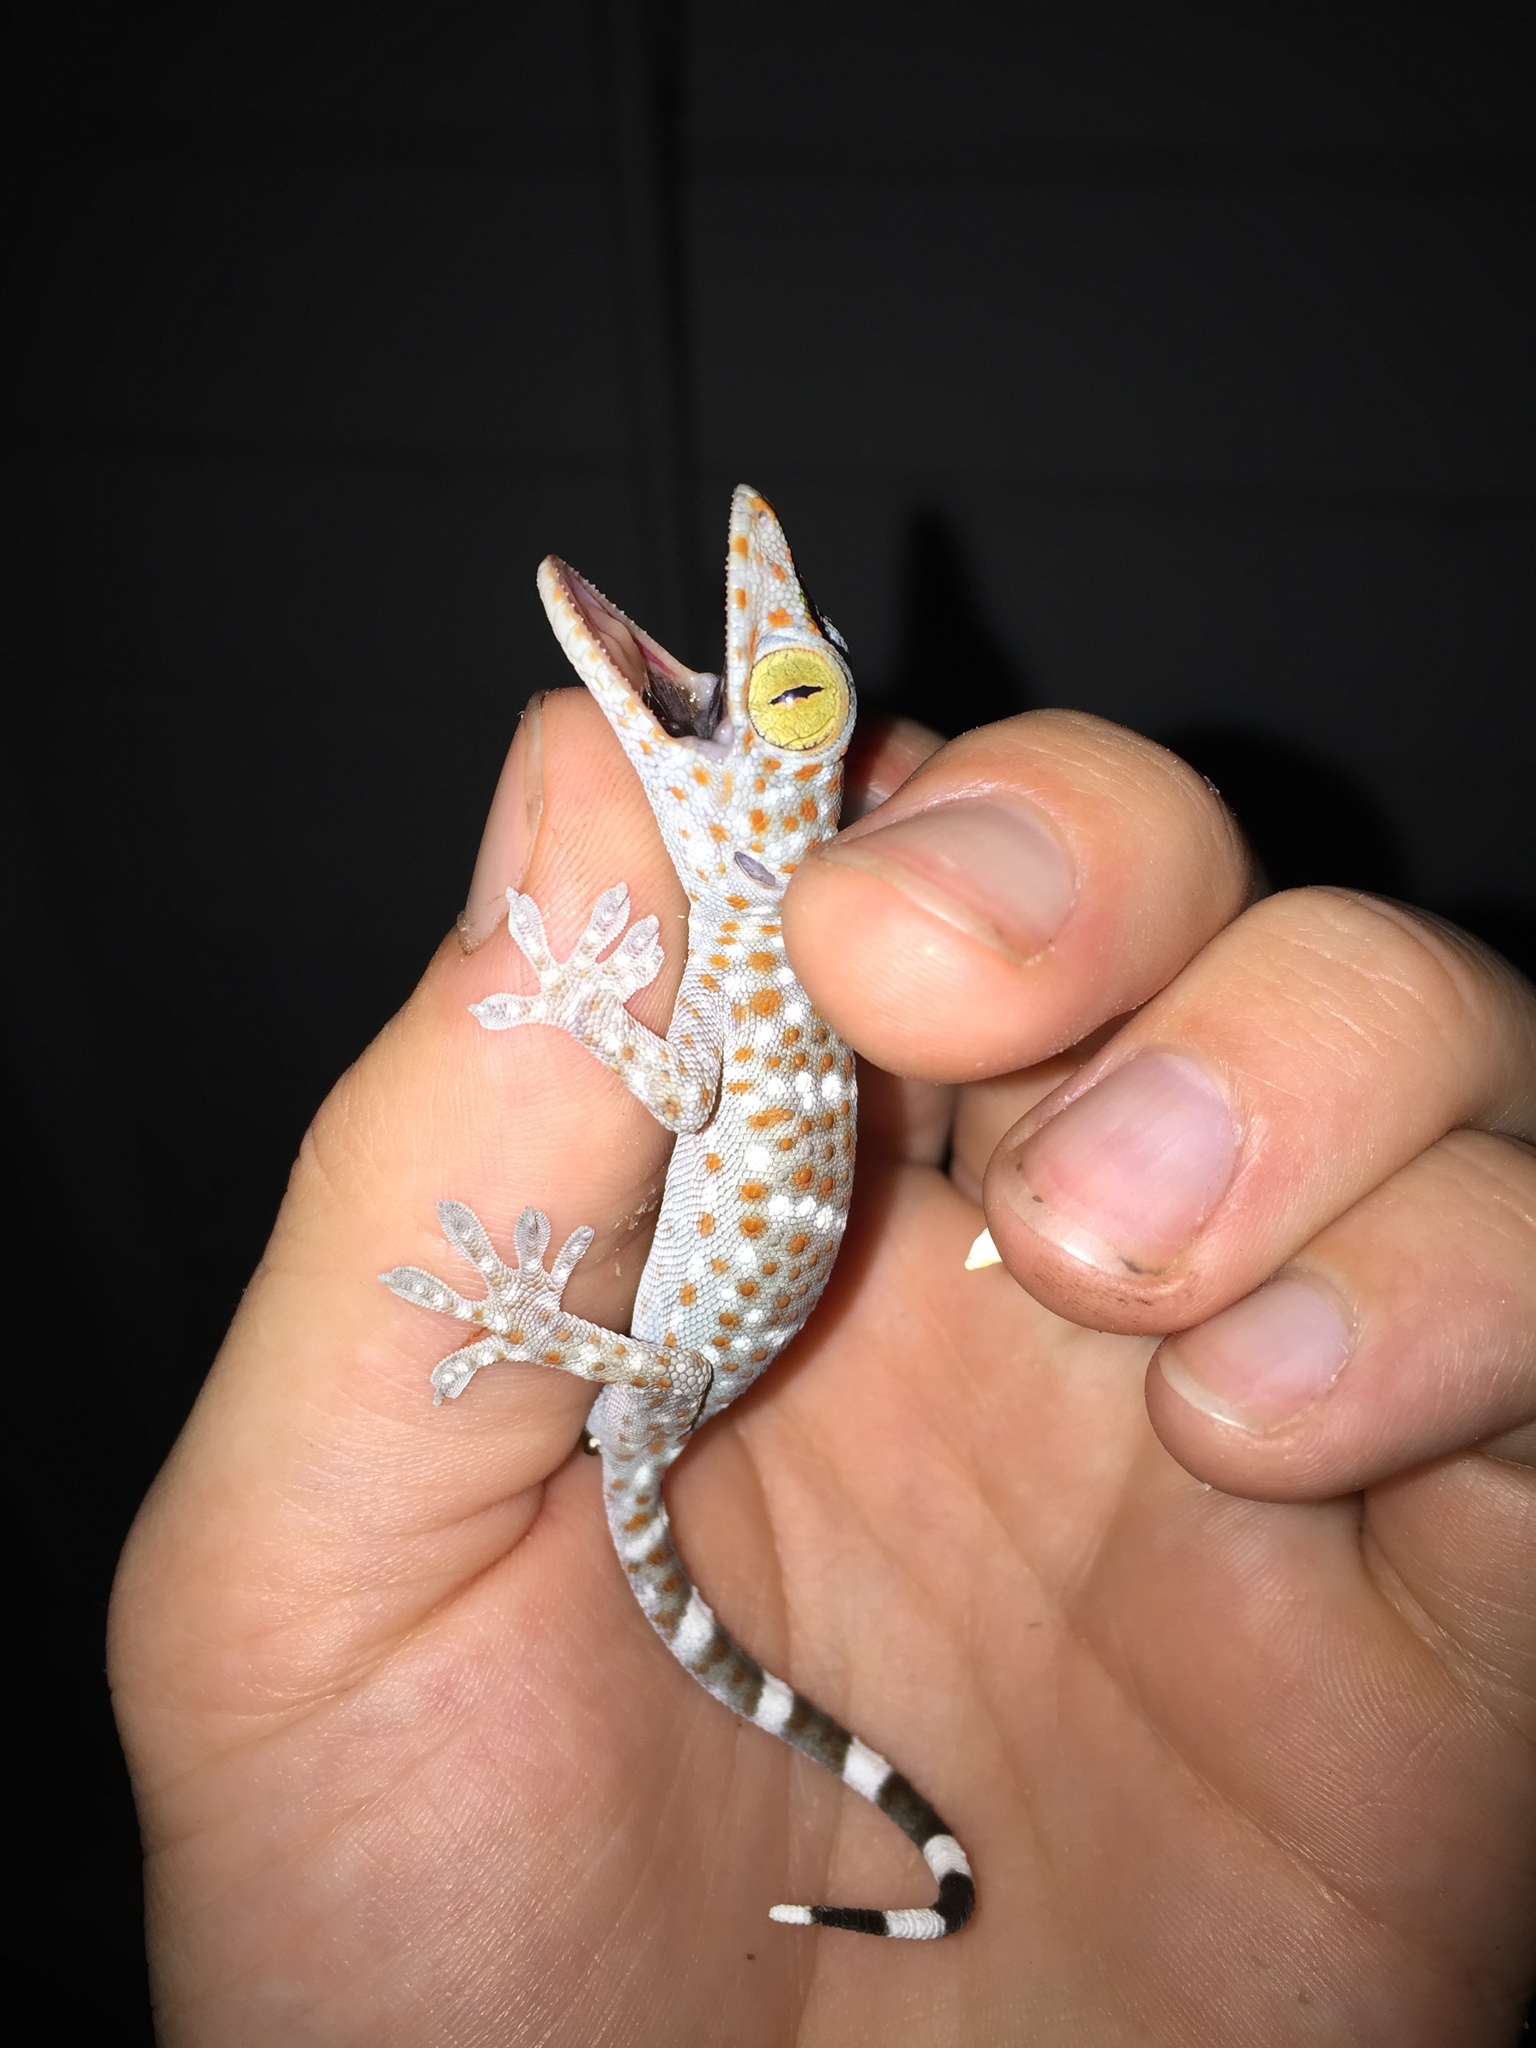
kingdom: Animalia
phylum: Chordata
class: Squamata
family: Gekkonidae
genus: Gekko
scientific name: Gekko gecko
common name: Tokay gecko
